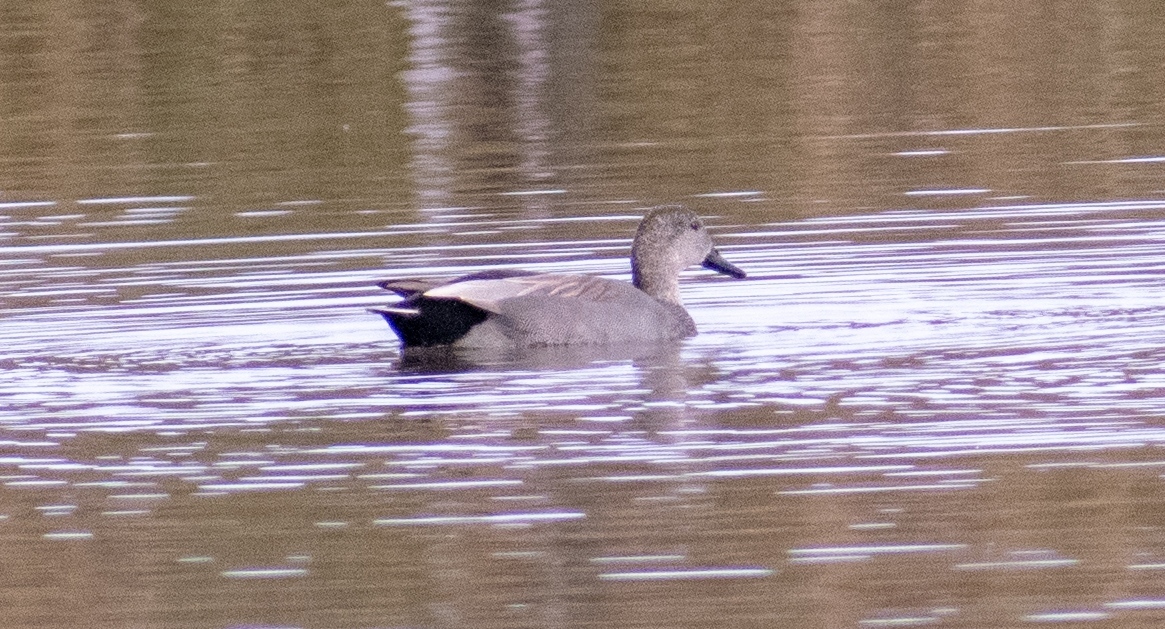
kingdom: Animalia
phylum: Chordata
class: Aves
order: Anseriformes
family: Anatidae
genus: Mareca
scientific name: Mareca strepera
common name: Gadwall
